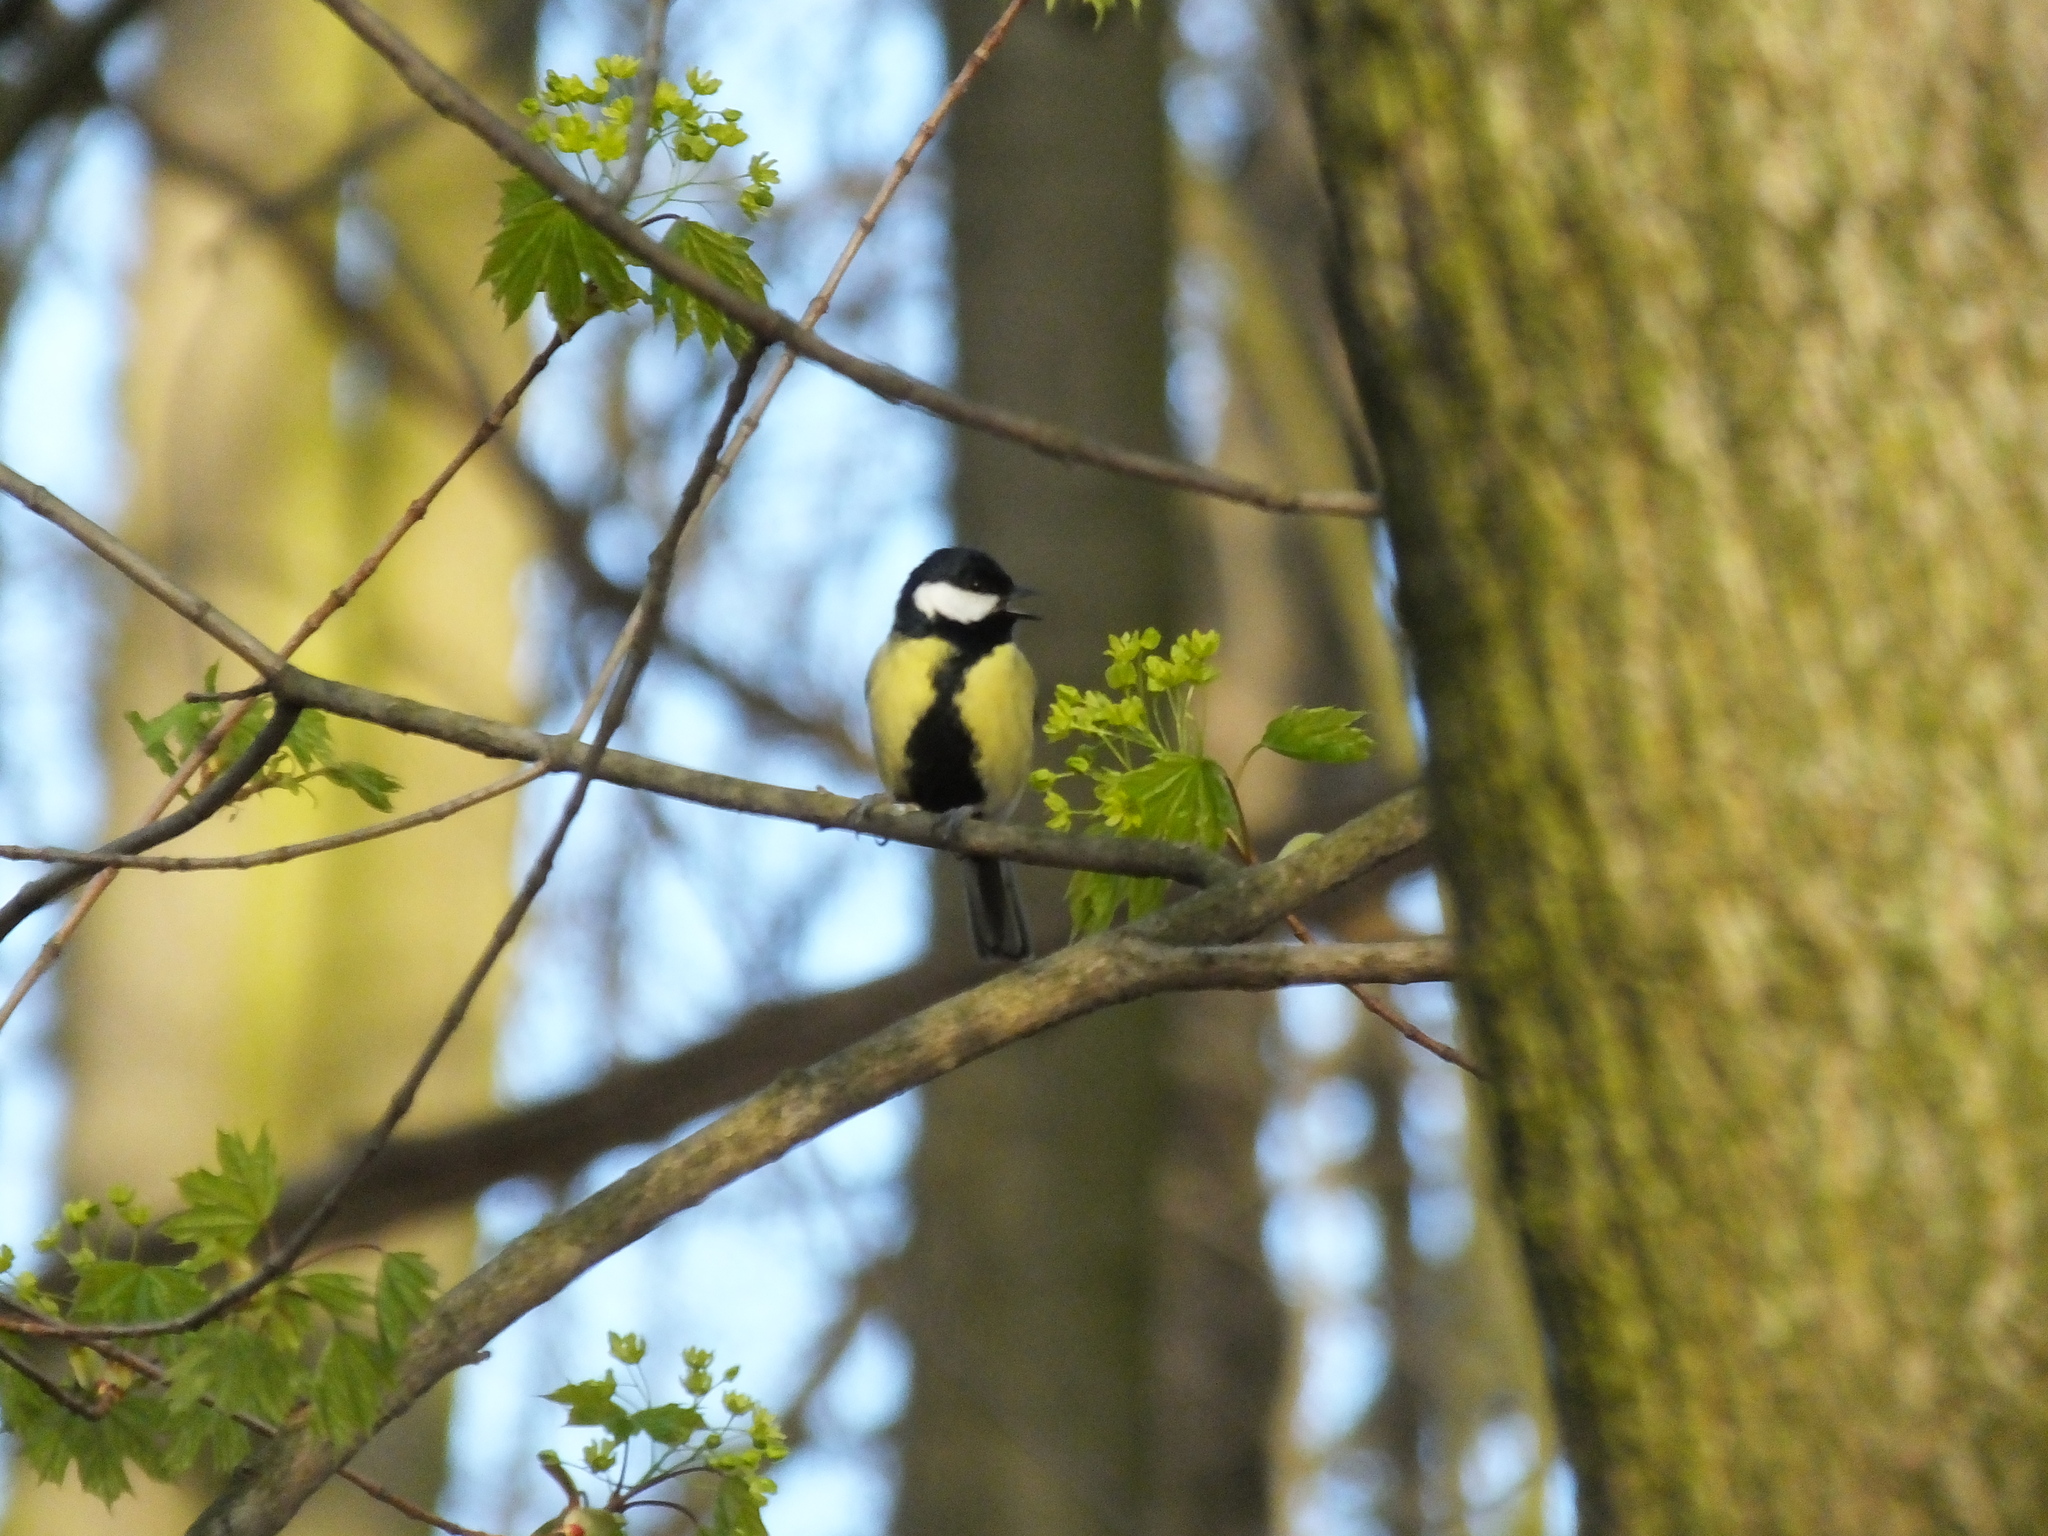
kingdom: Animalia
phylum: Chordata
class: Aves
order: Passeriformes
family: Paridae
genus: Parus
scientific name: Parus major
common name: Great tit
